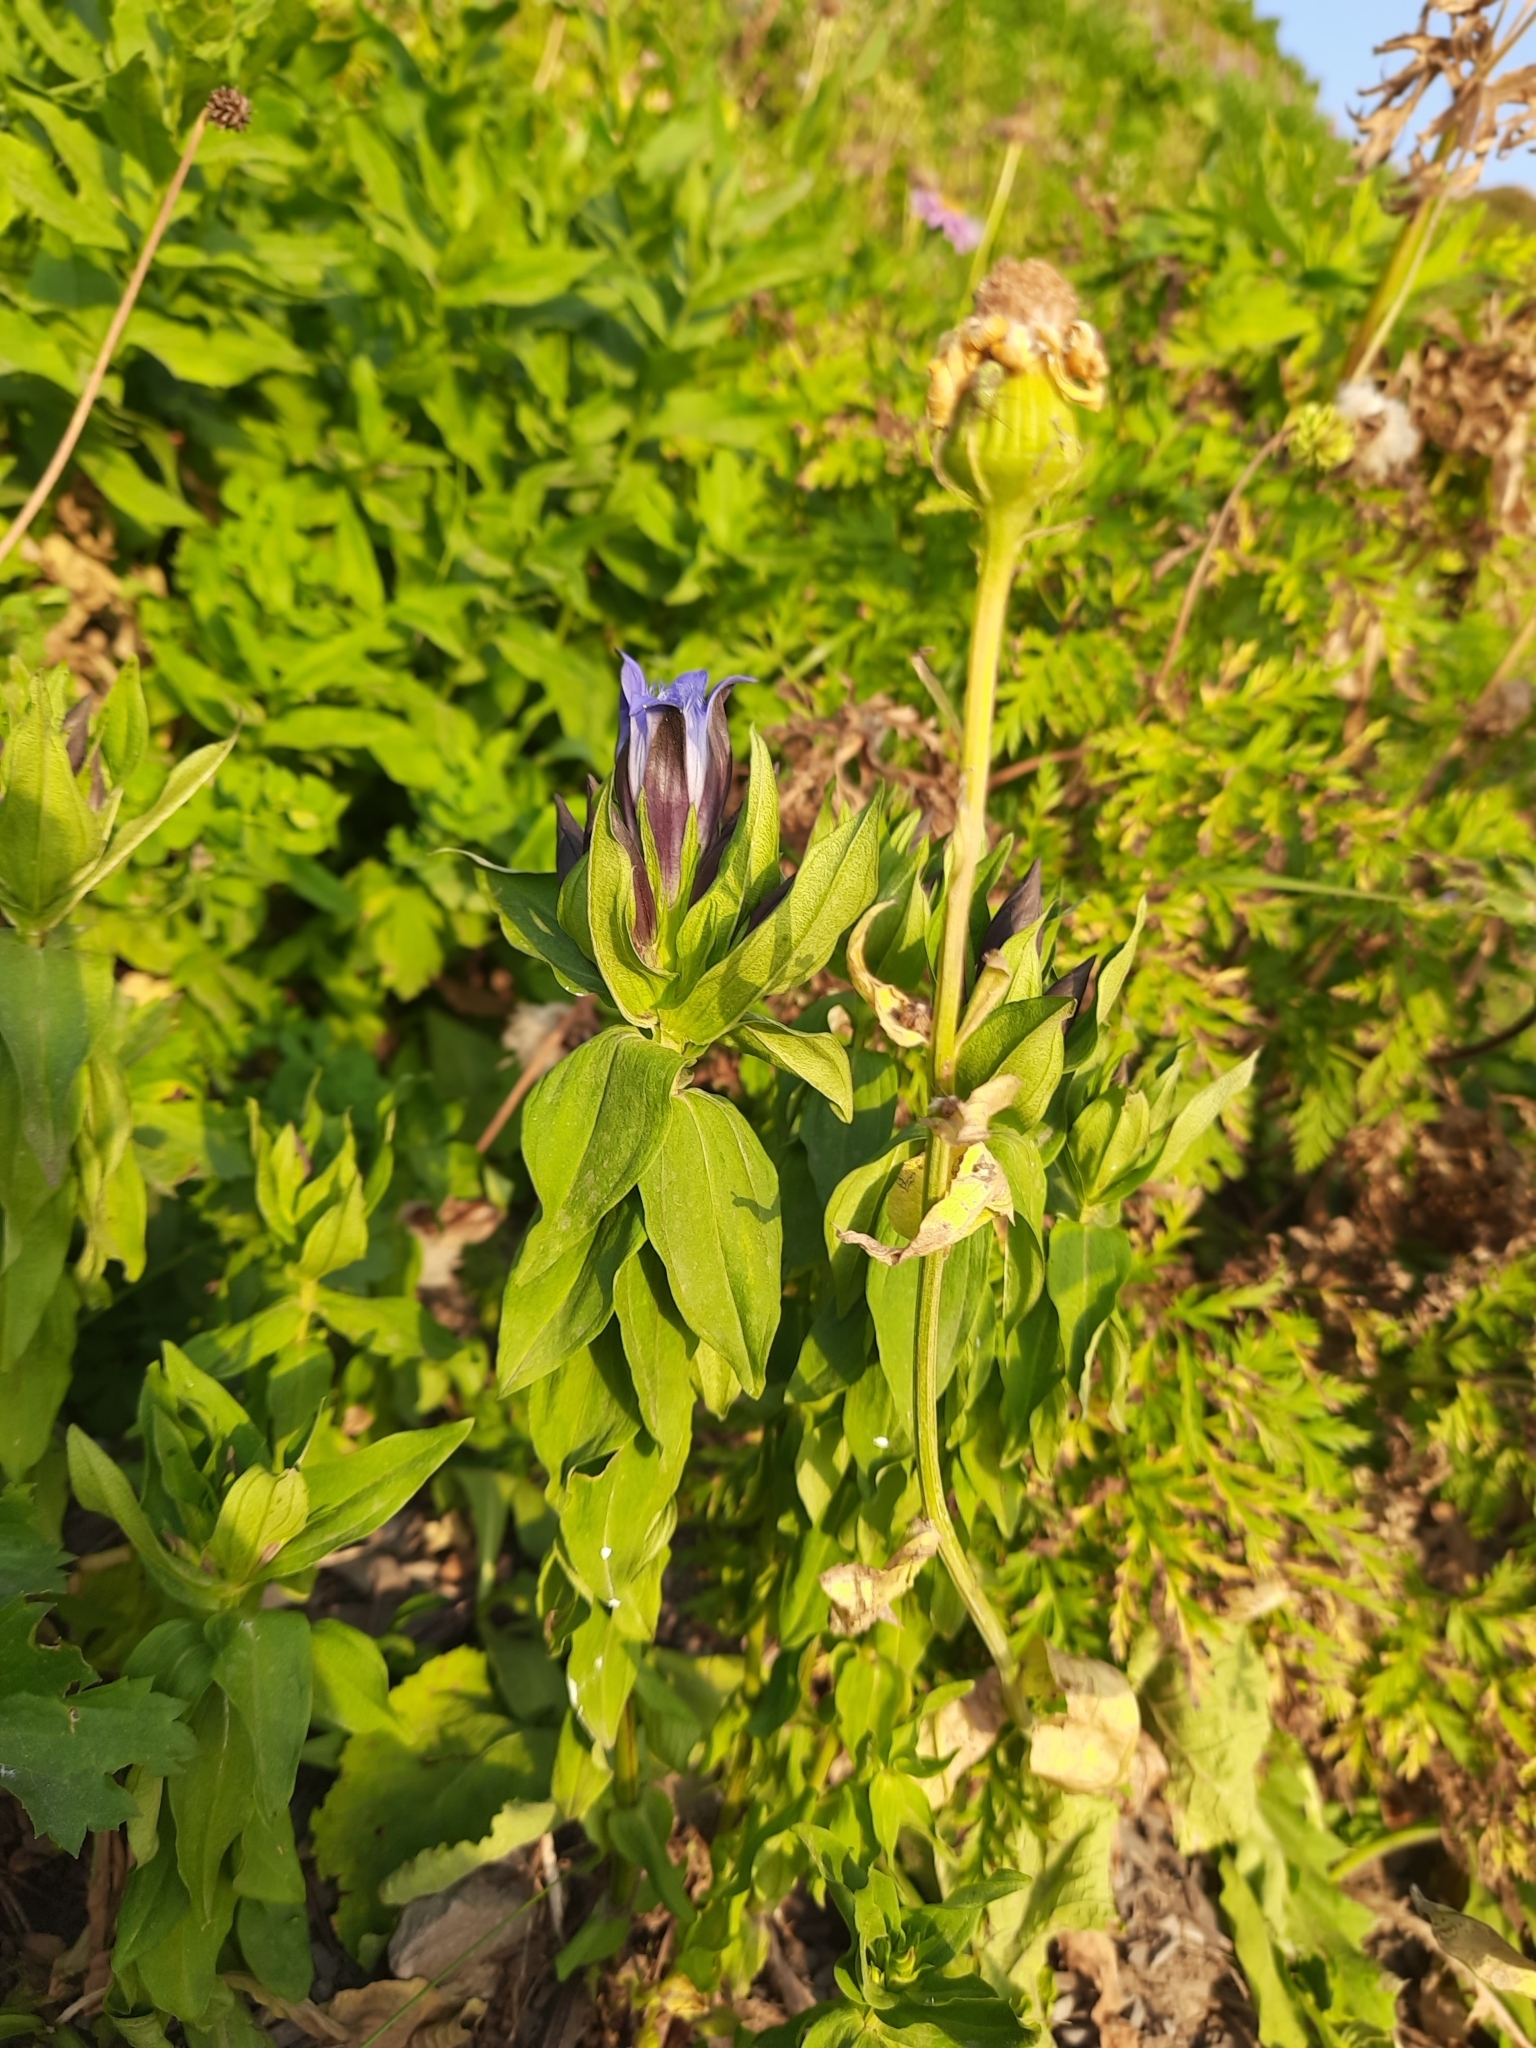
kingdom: Plantae
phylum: Tracheophyta
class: Magnoliopsida
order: Gentianales
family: Gentianaceae
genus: Gentiana
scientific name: Gentiana septemfida
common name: Crested gentian
